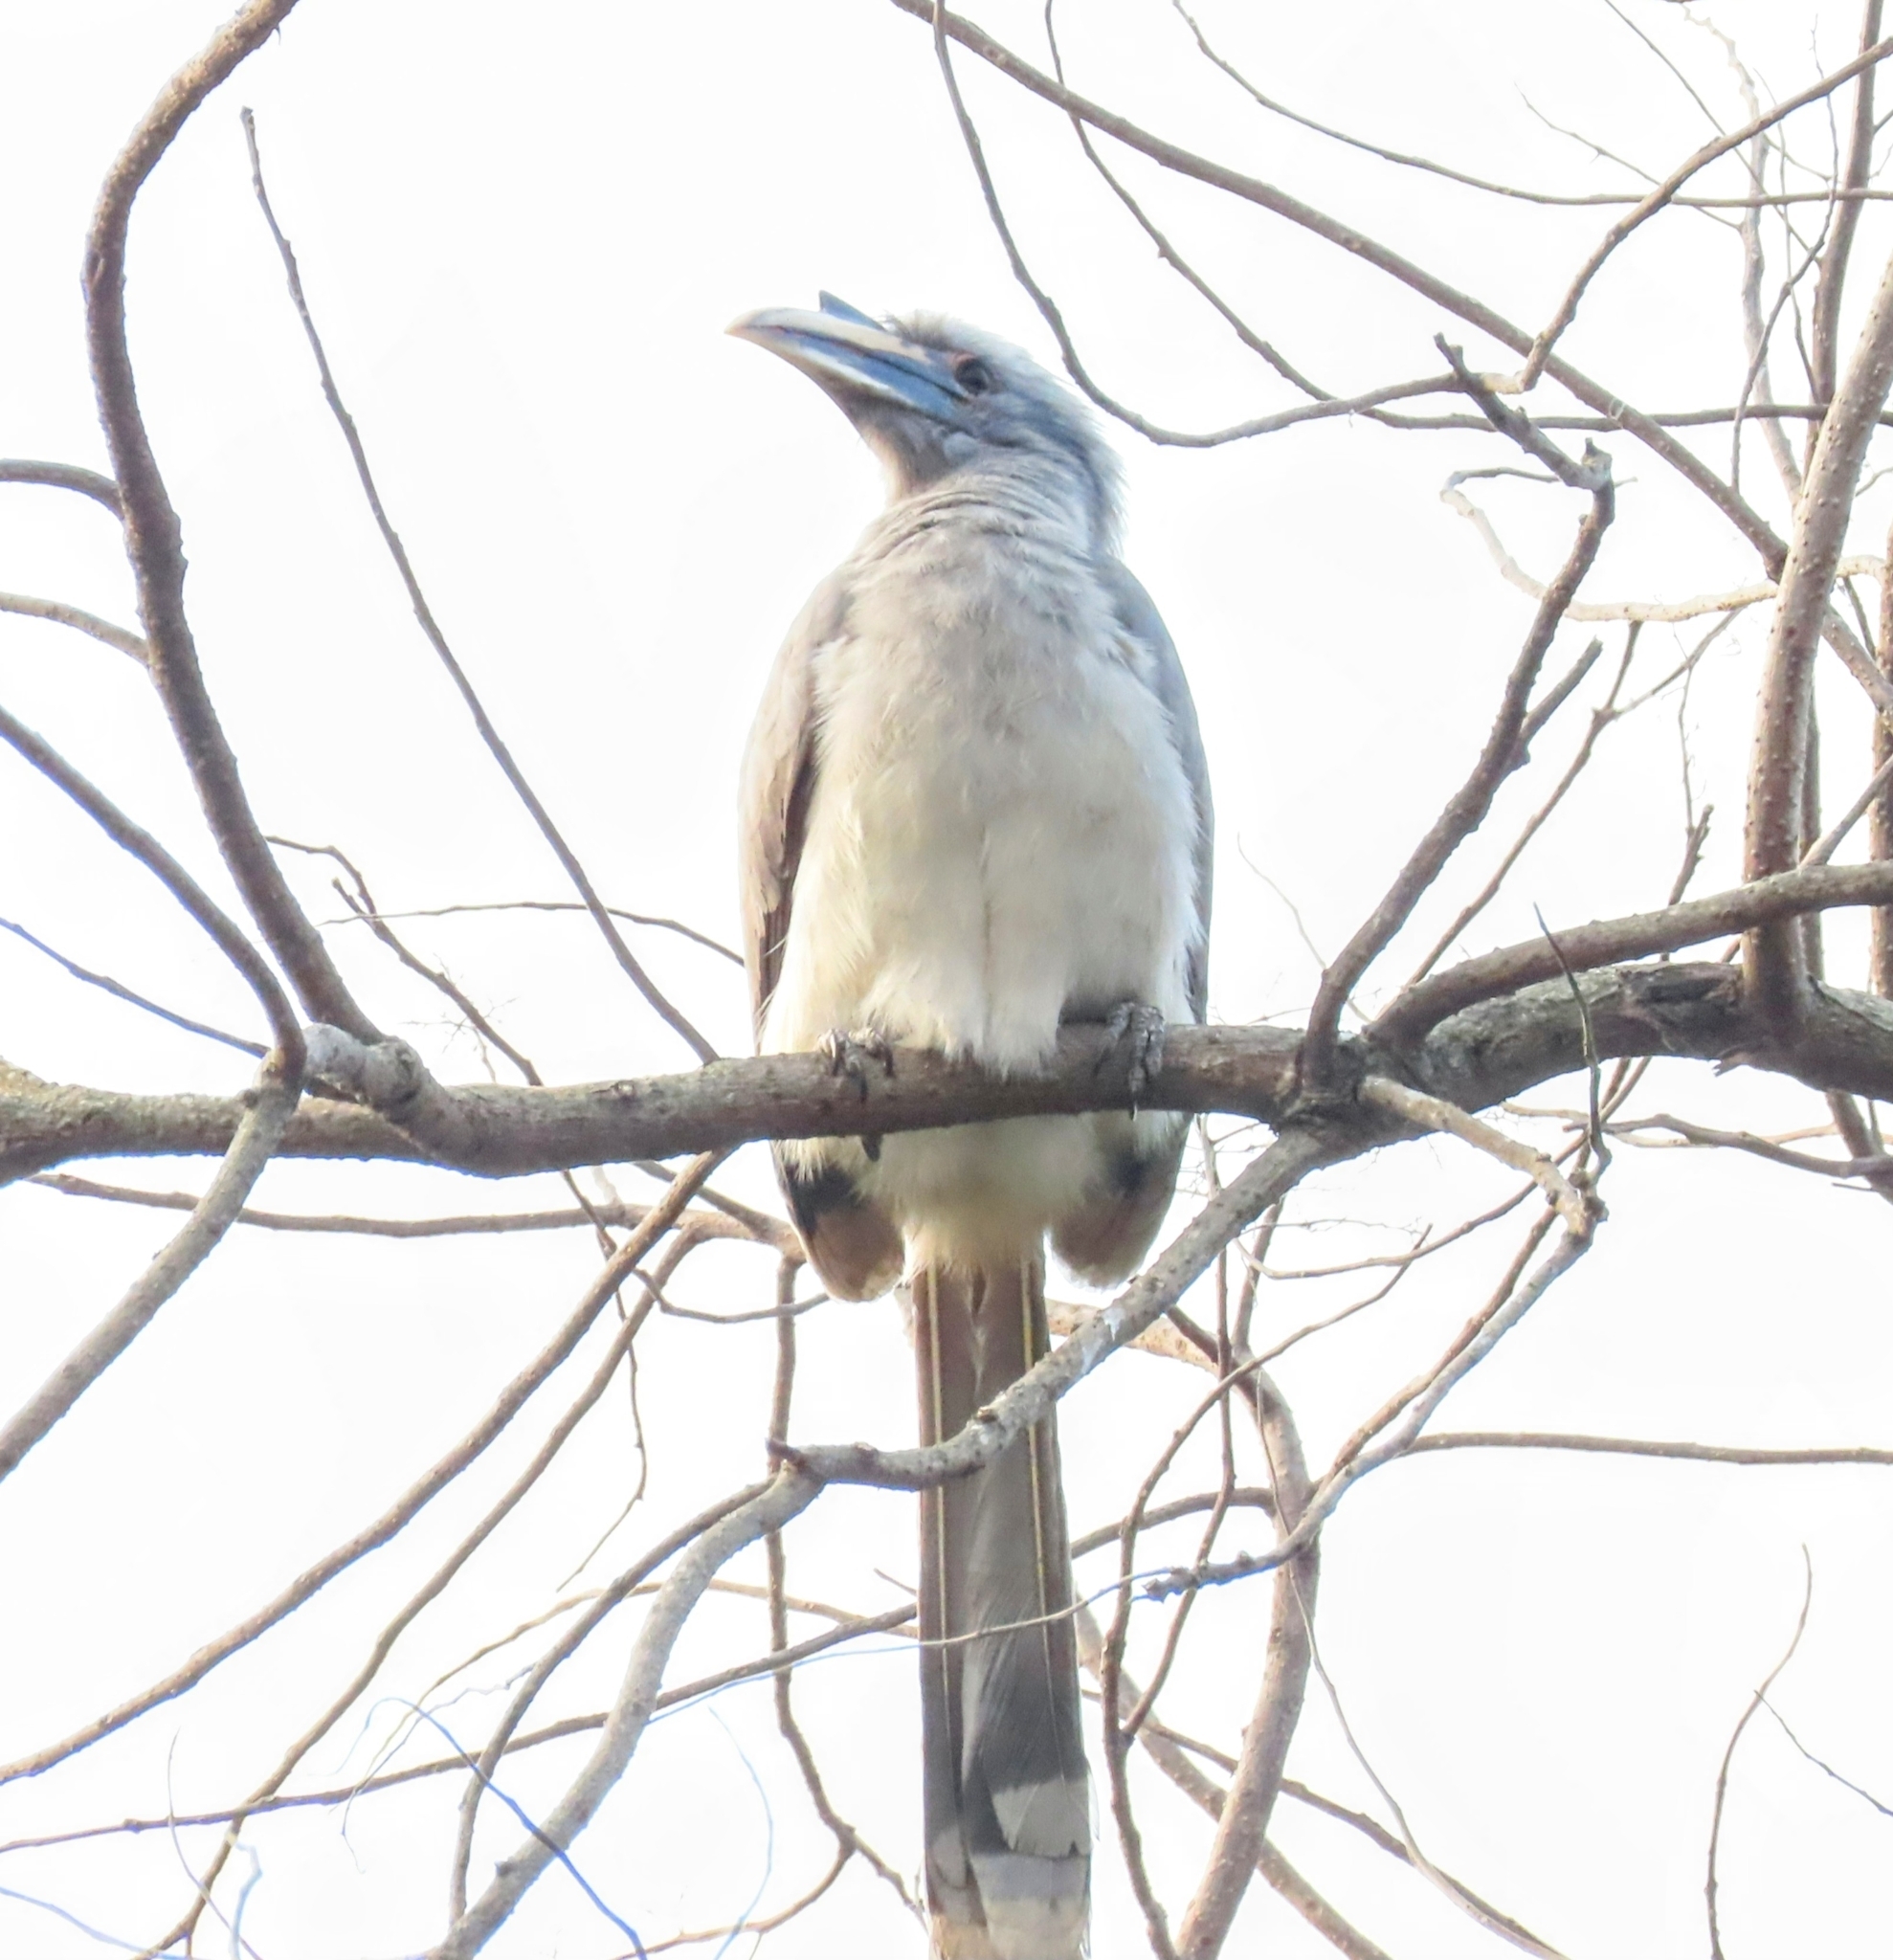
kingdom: Animalia
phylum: Chordata
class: Aves
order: Bucerotiformes
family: Bucerotidae
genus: Ocyceros
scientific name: Ocyceros birostris
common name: Indian grey hornbill
